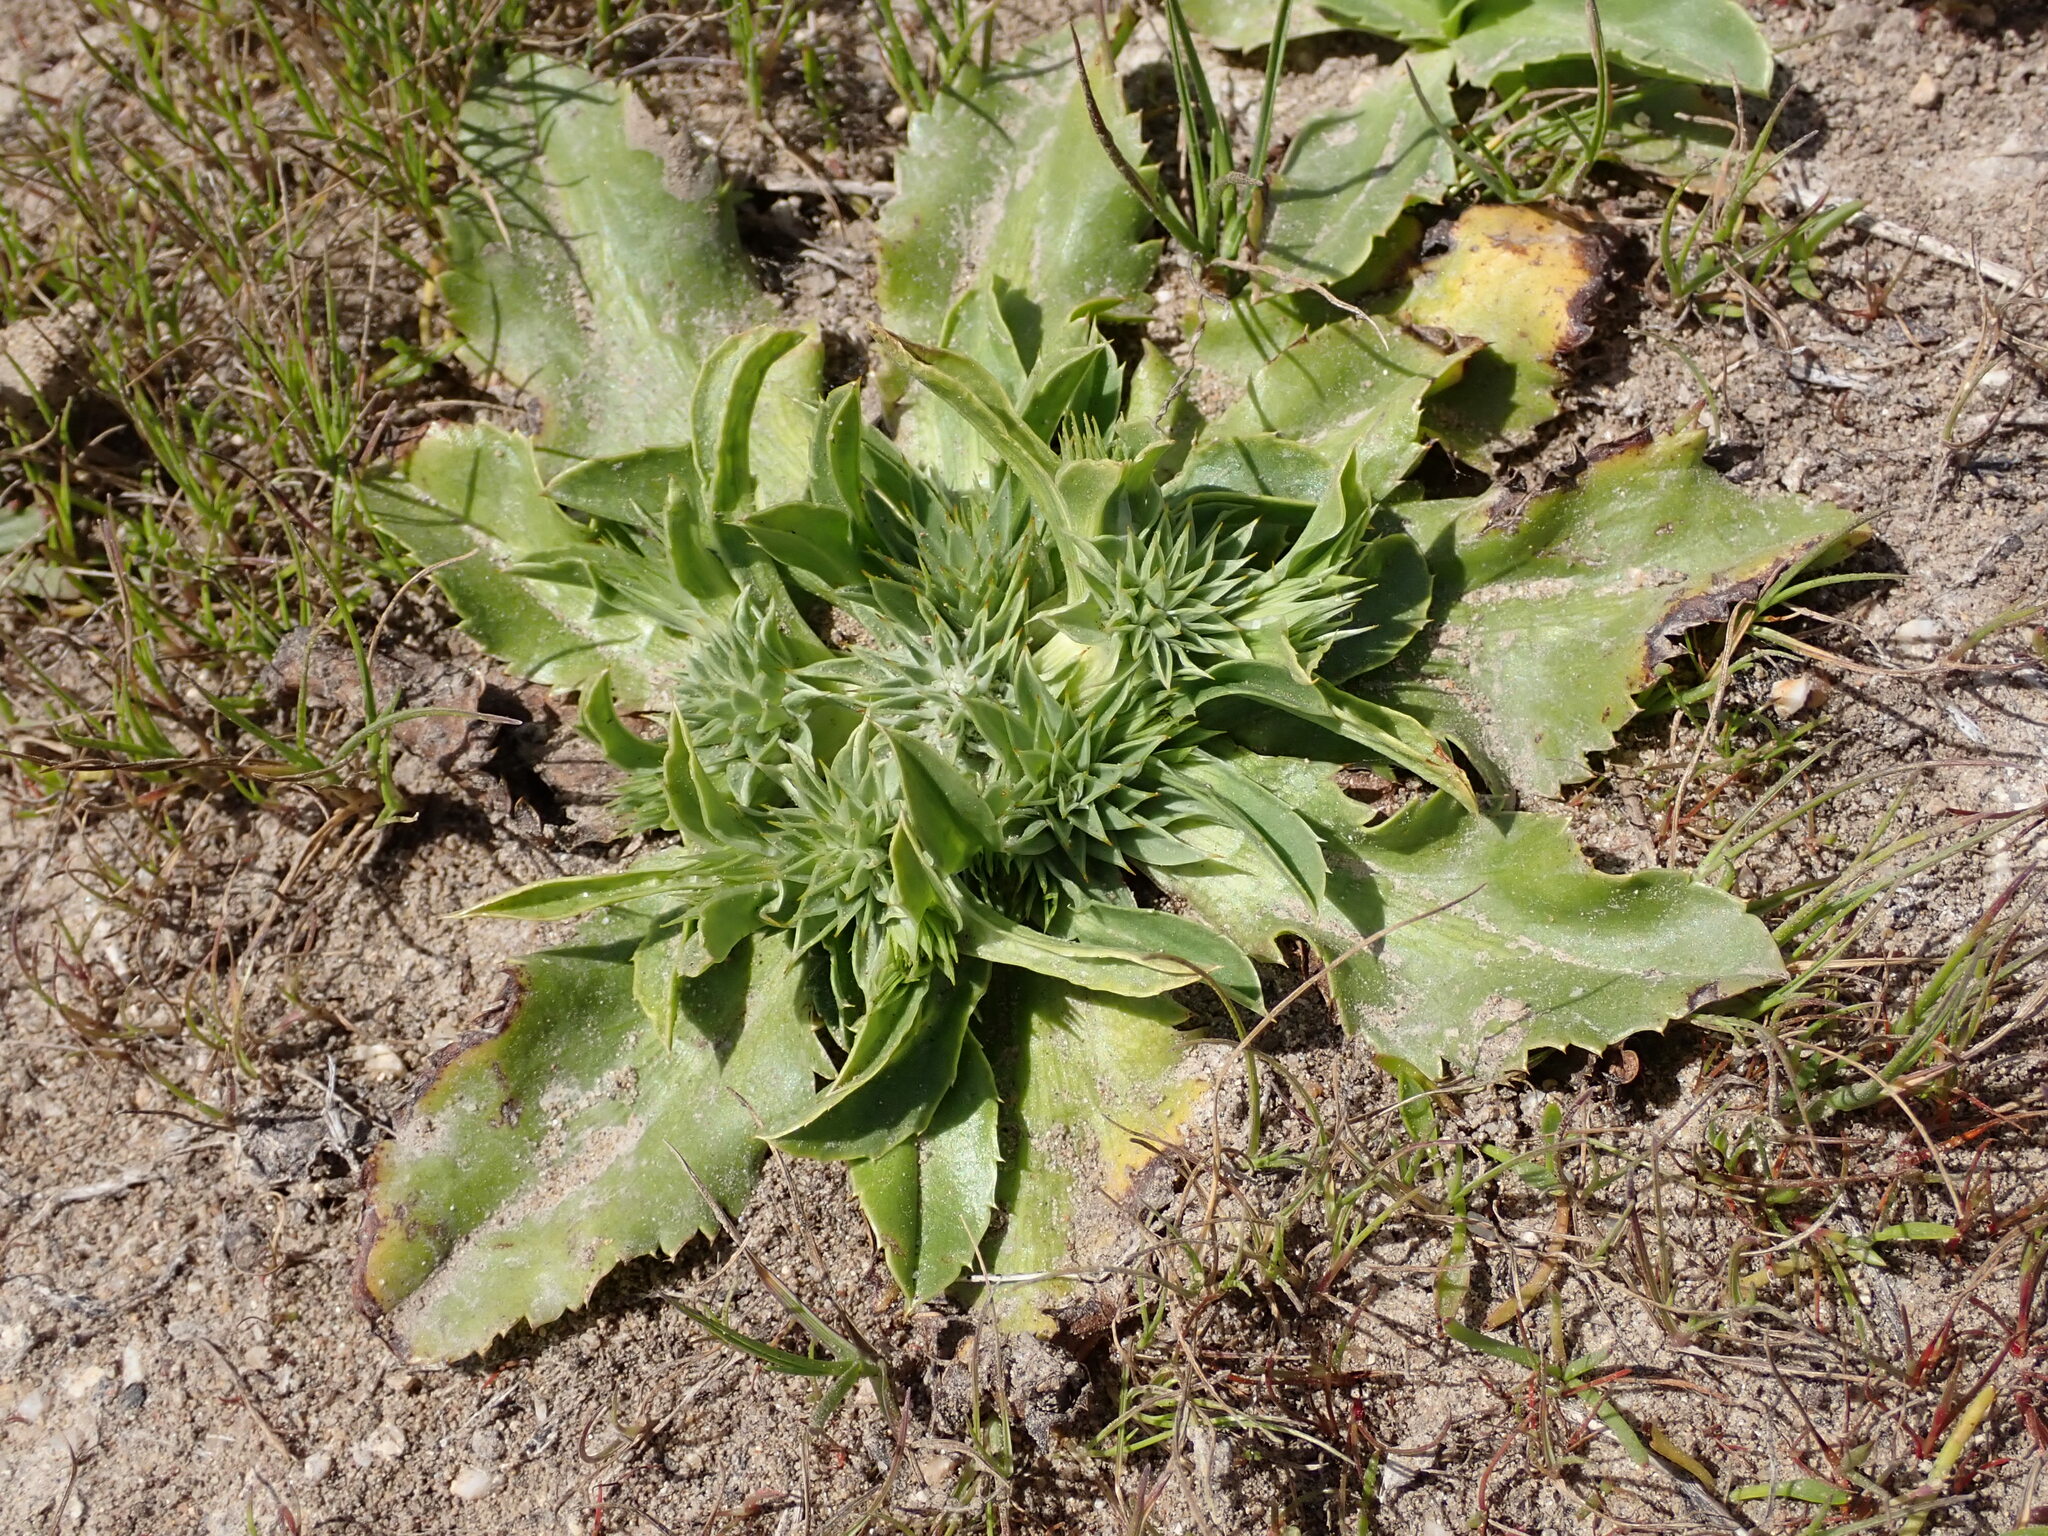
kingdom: Plantae
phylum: Tracheophyta
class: Magnoliopsida
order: Apiales
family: Apiaceae
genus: Eryngium
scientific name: Eryngium armatum
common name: Coyote thistle
